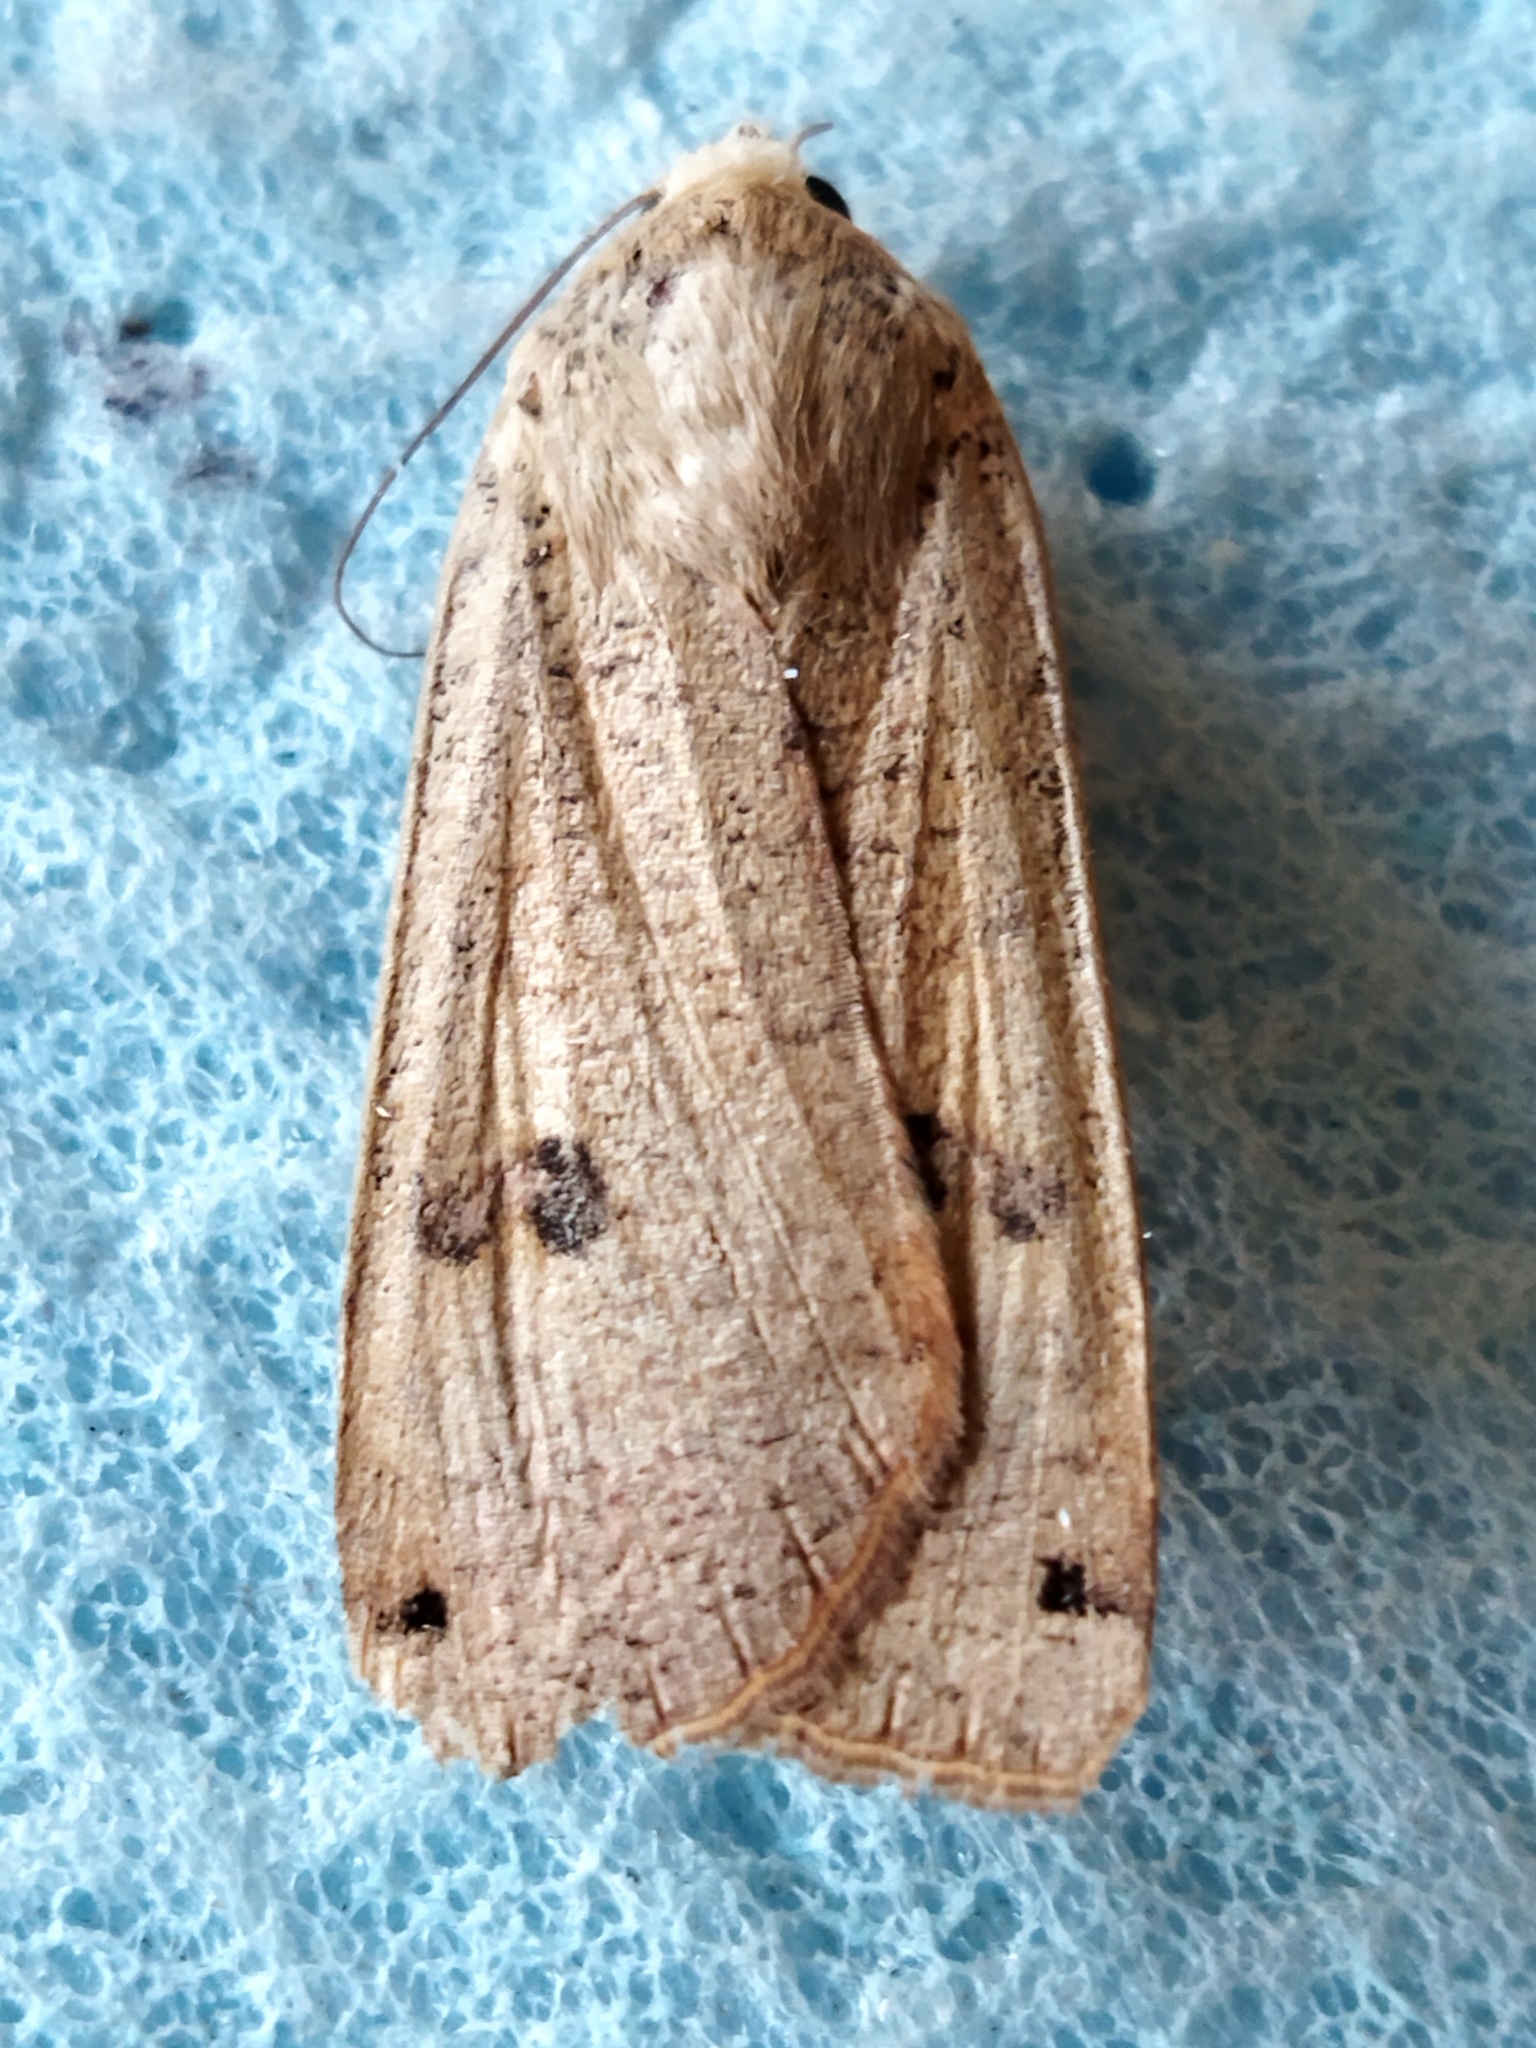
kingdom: Animalia
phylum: Arthropoda
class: Insecta
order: Lepidoptera
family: Noctuidae
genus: Noctua
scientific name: Noctua pronuba
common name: Large yellow underwing
